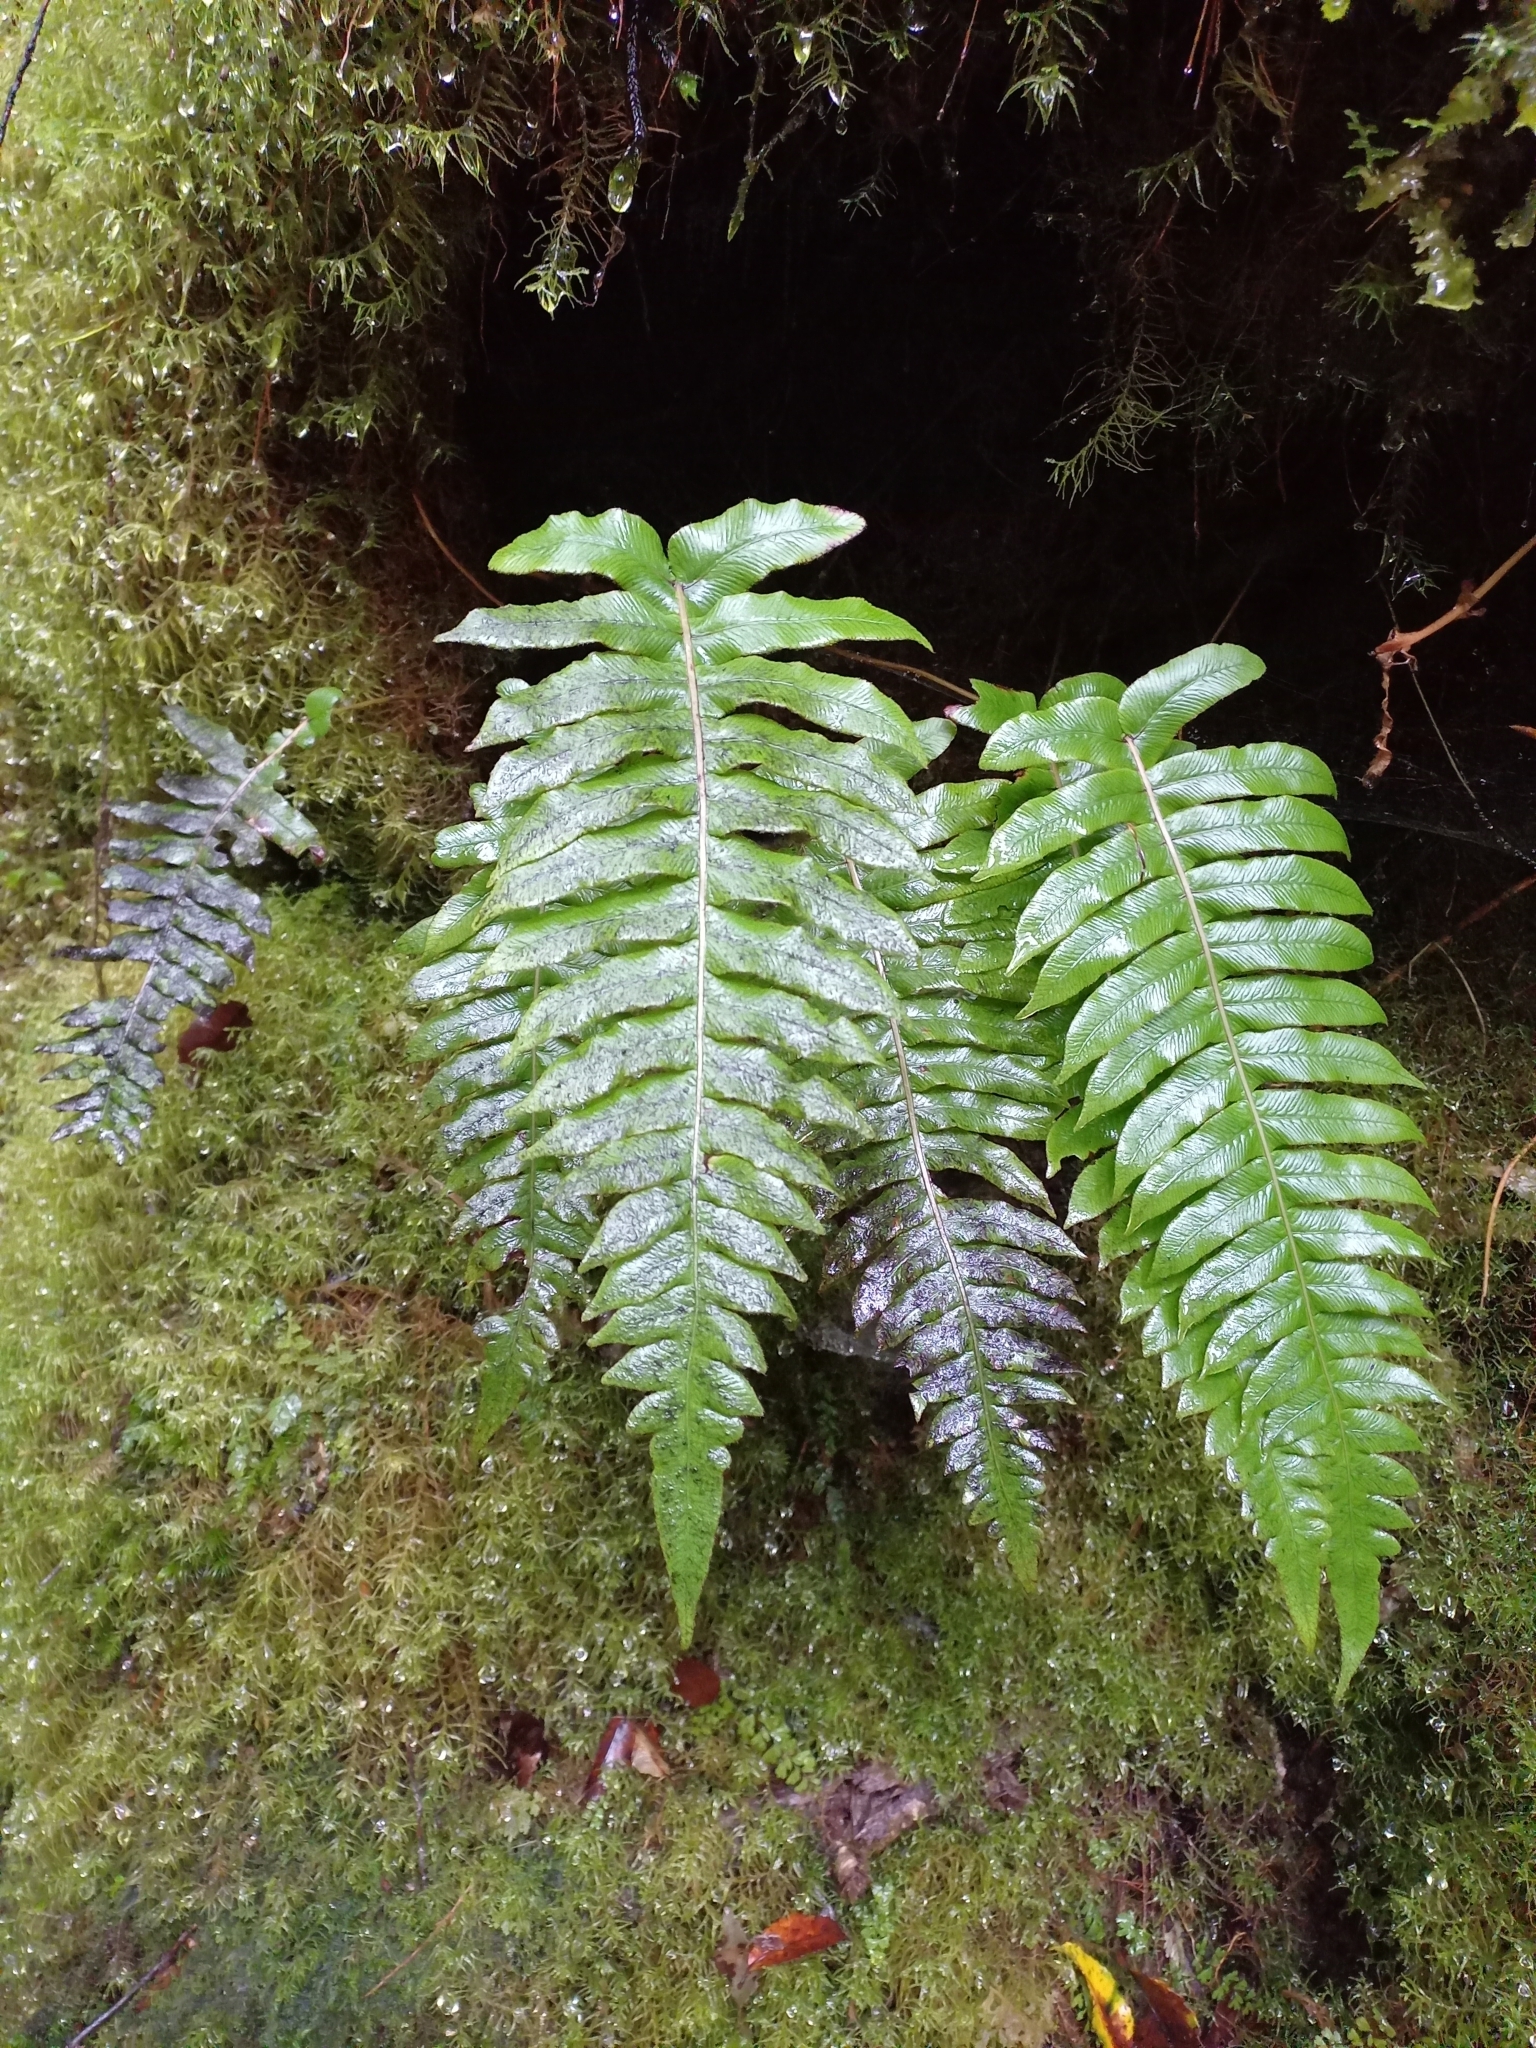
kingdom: Plantae
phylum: Tracheophyta
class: Polypodiopsida
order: Polypodiales
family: Blechnaceae
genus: Cranfillia
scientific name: Cranfillia deltoides
